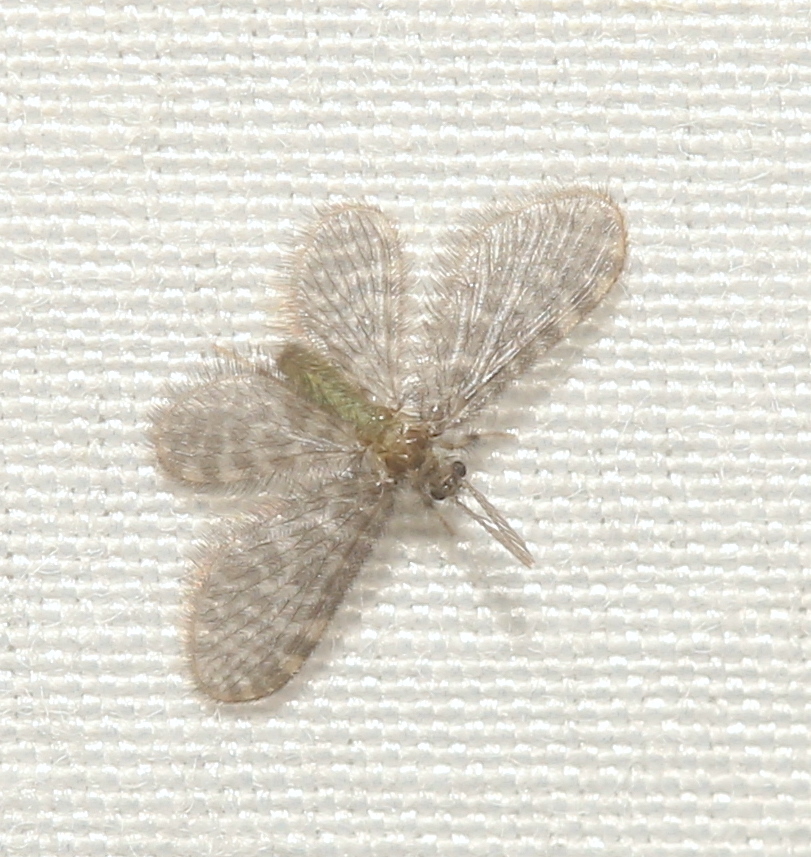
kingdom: Animalia
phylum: Arthropoda
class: Insecta
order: Neuroptera
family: Dilaridae
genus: Nallachius
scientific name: Nallachius americanus
